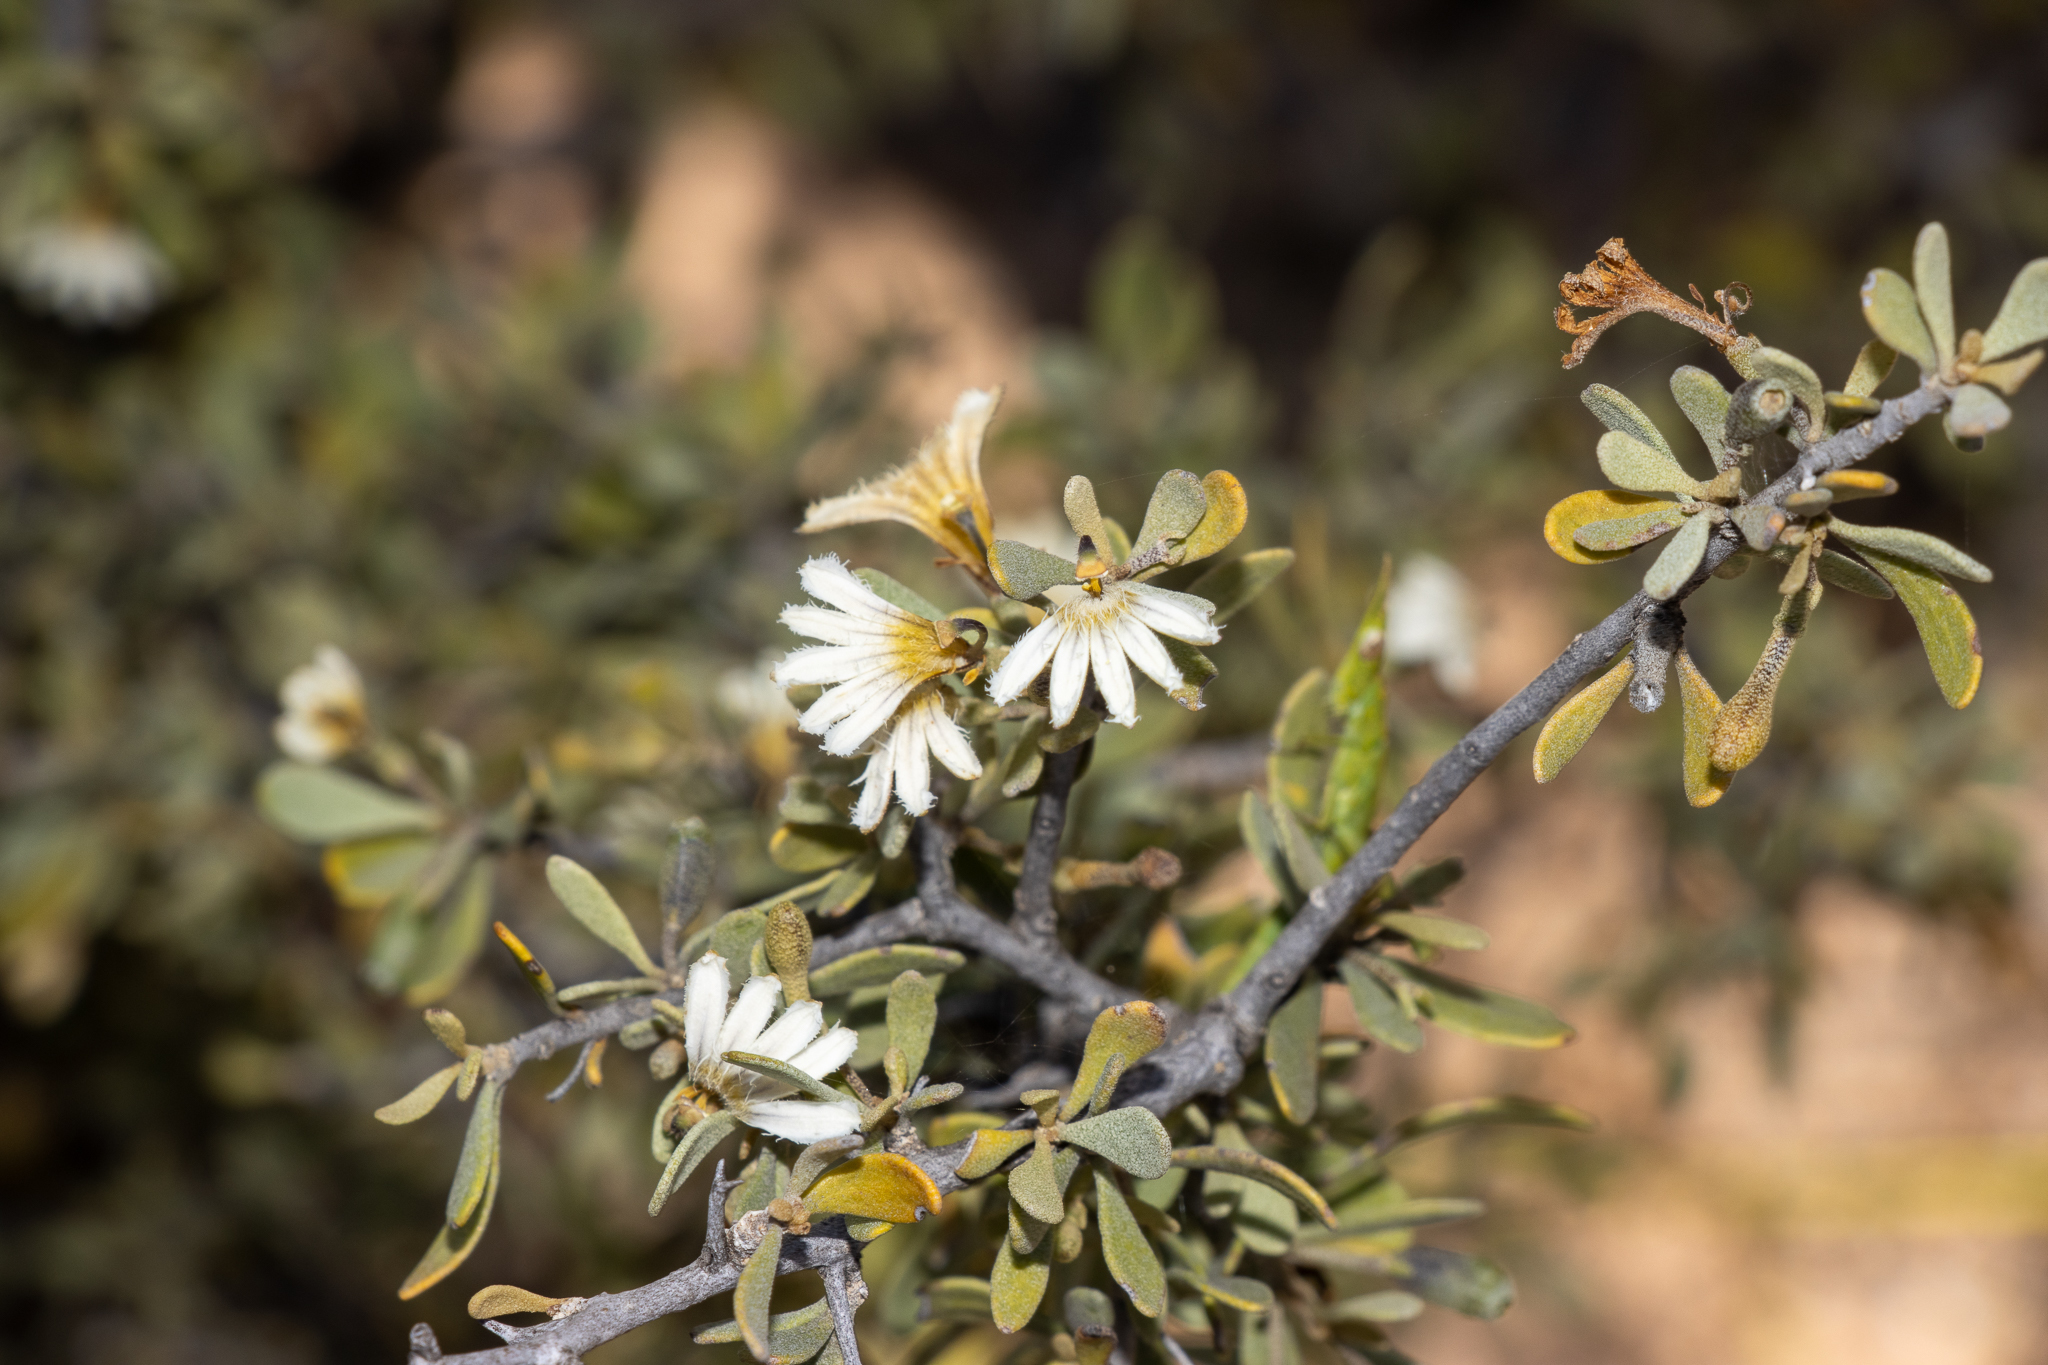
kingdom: Plantae
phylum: Tracheophyta
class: Magnoliopsida
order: Asterales
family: Goodeniaceae
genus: Scaevola
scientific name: Scaevola spinescens
